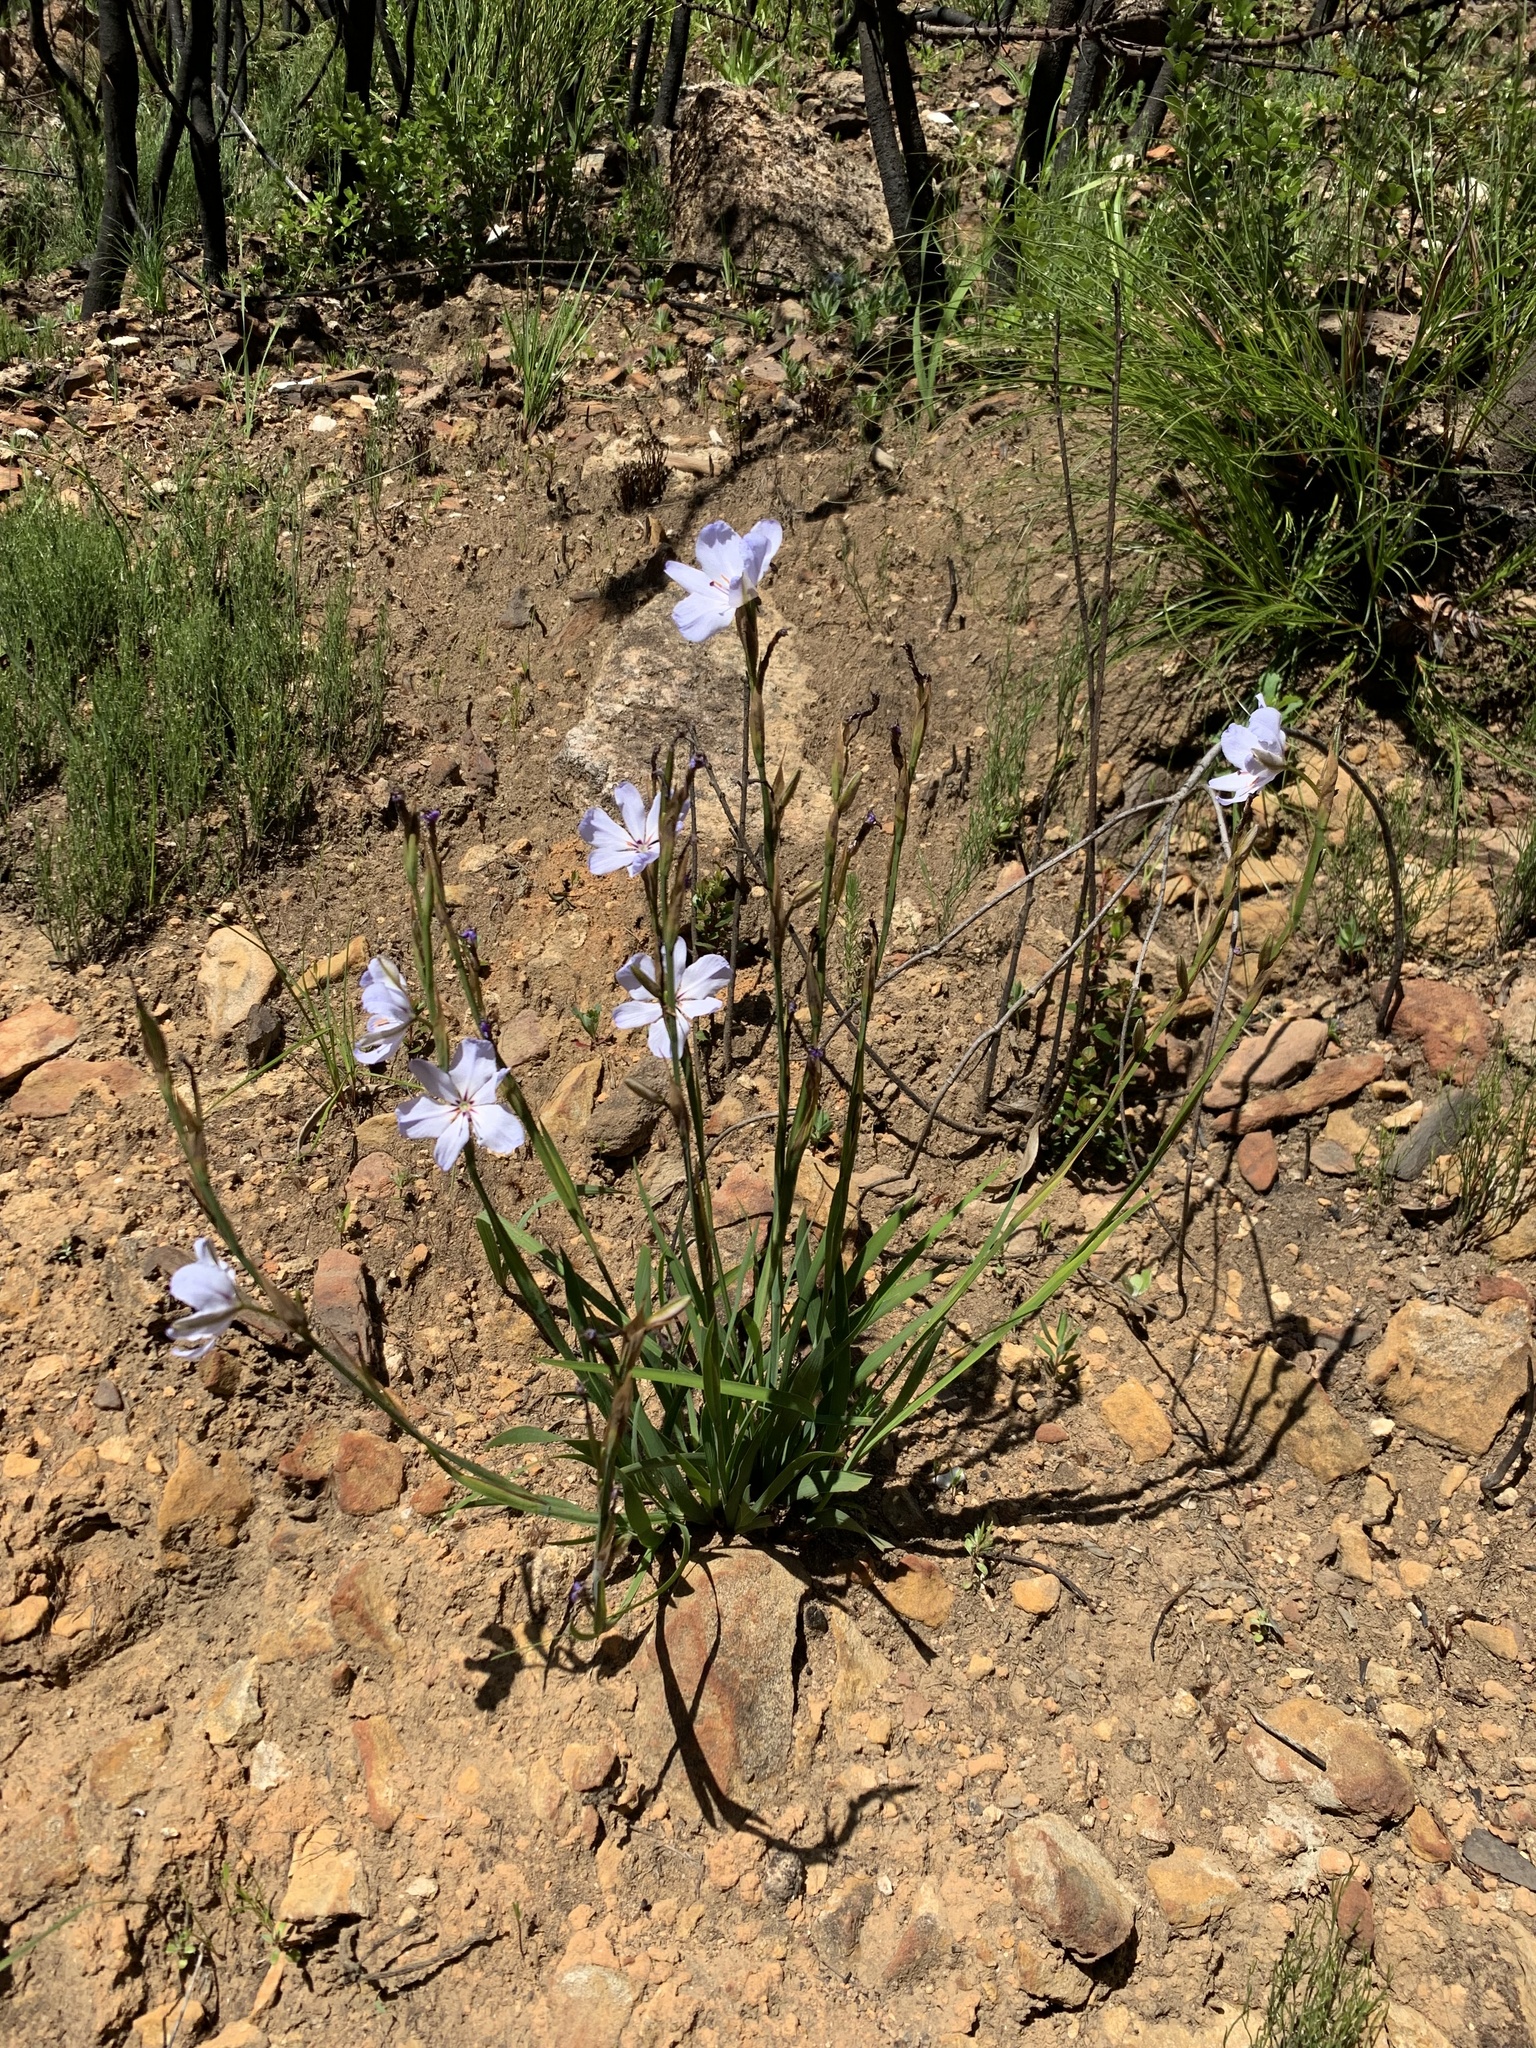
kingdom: Plantae
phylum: Tracheophyta
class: Liliopsida
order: Asparagales
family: Iridaceae
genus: Aristea
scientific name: Aristea spiralis
